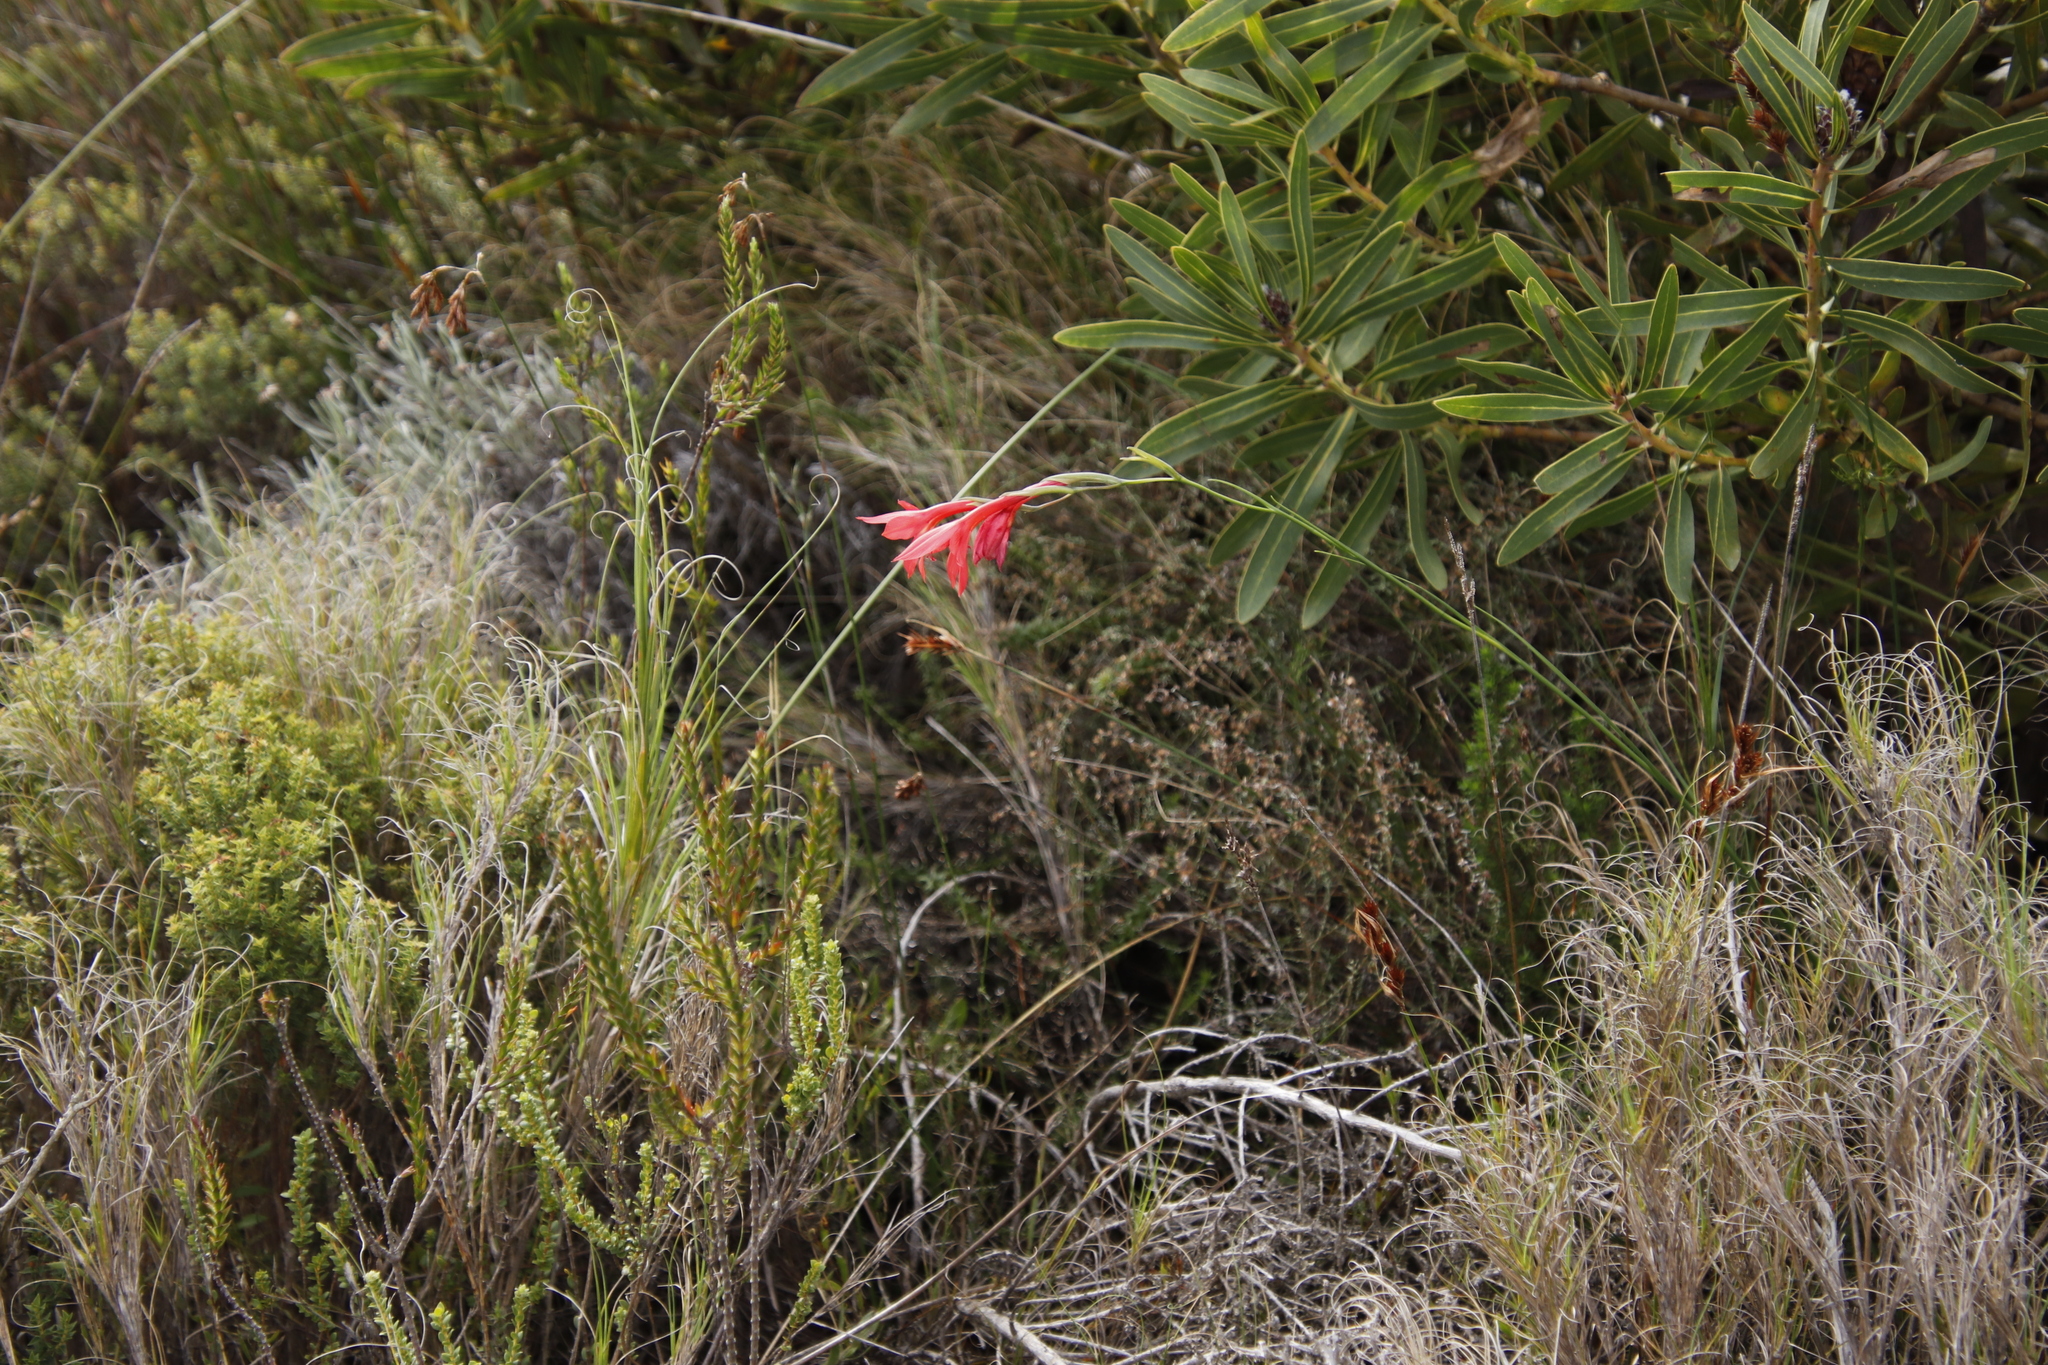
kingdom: Plantae
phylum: Tracheophyta
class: Liliopsida
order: Asparagales
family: Iridaceae
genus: Gladiolus
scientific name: Gladiolus priorii
